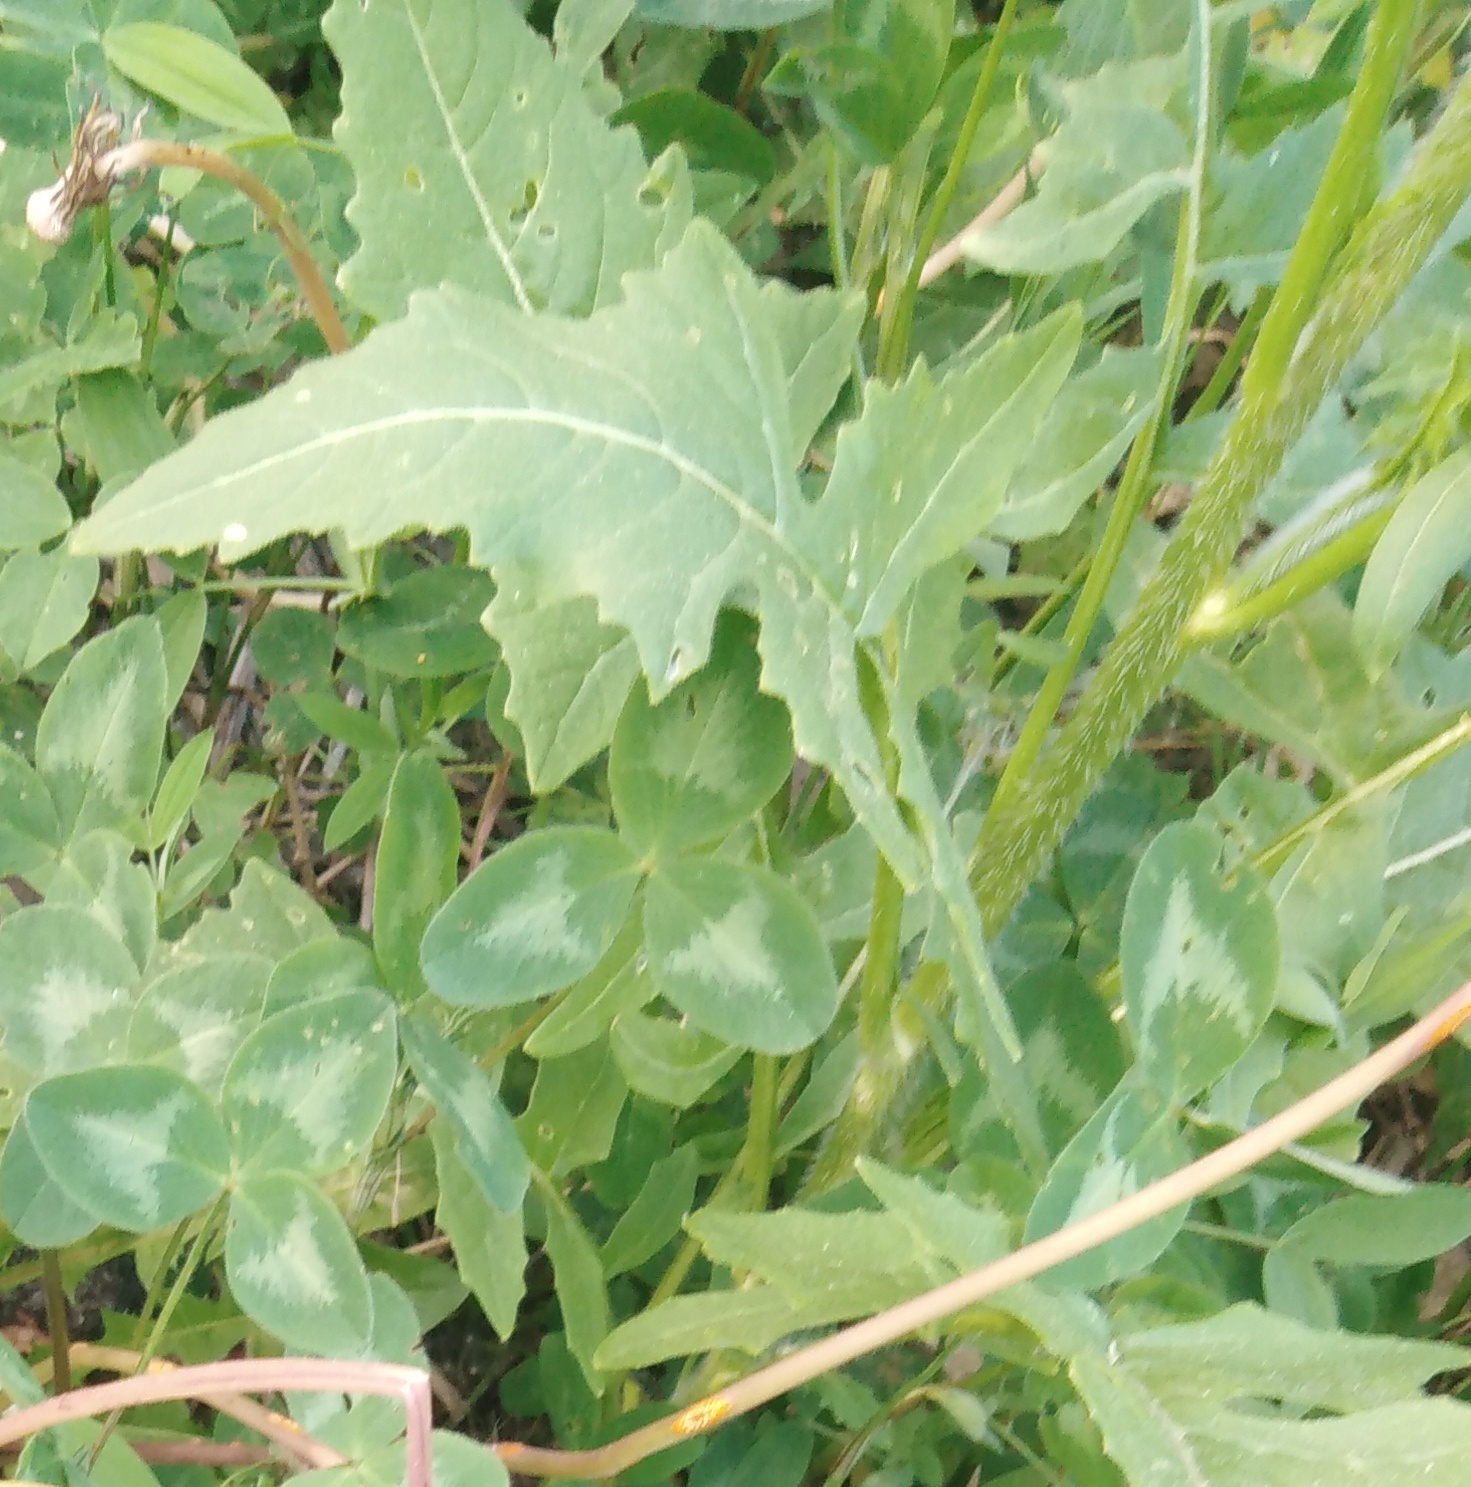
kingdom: Plantae
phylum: Tracheophyta
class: Magnoliopsida
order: Brassicales
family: Brassicaceae
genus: Sisymbrium
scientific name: Sisymbrium loeselii
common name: False london-rocket
